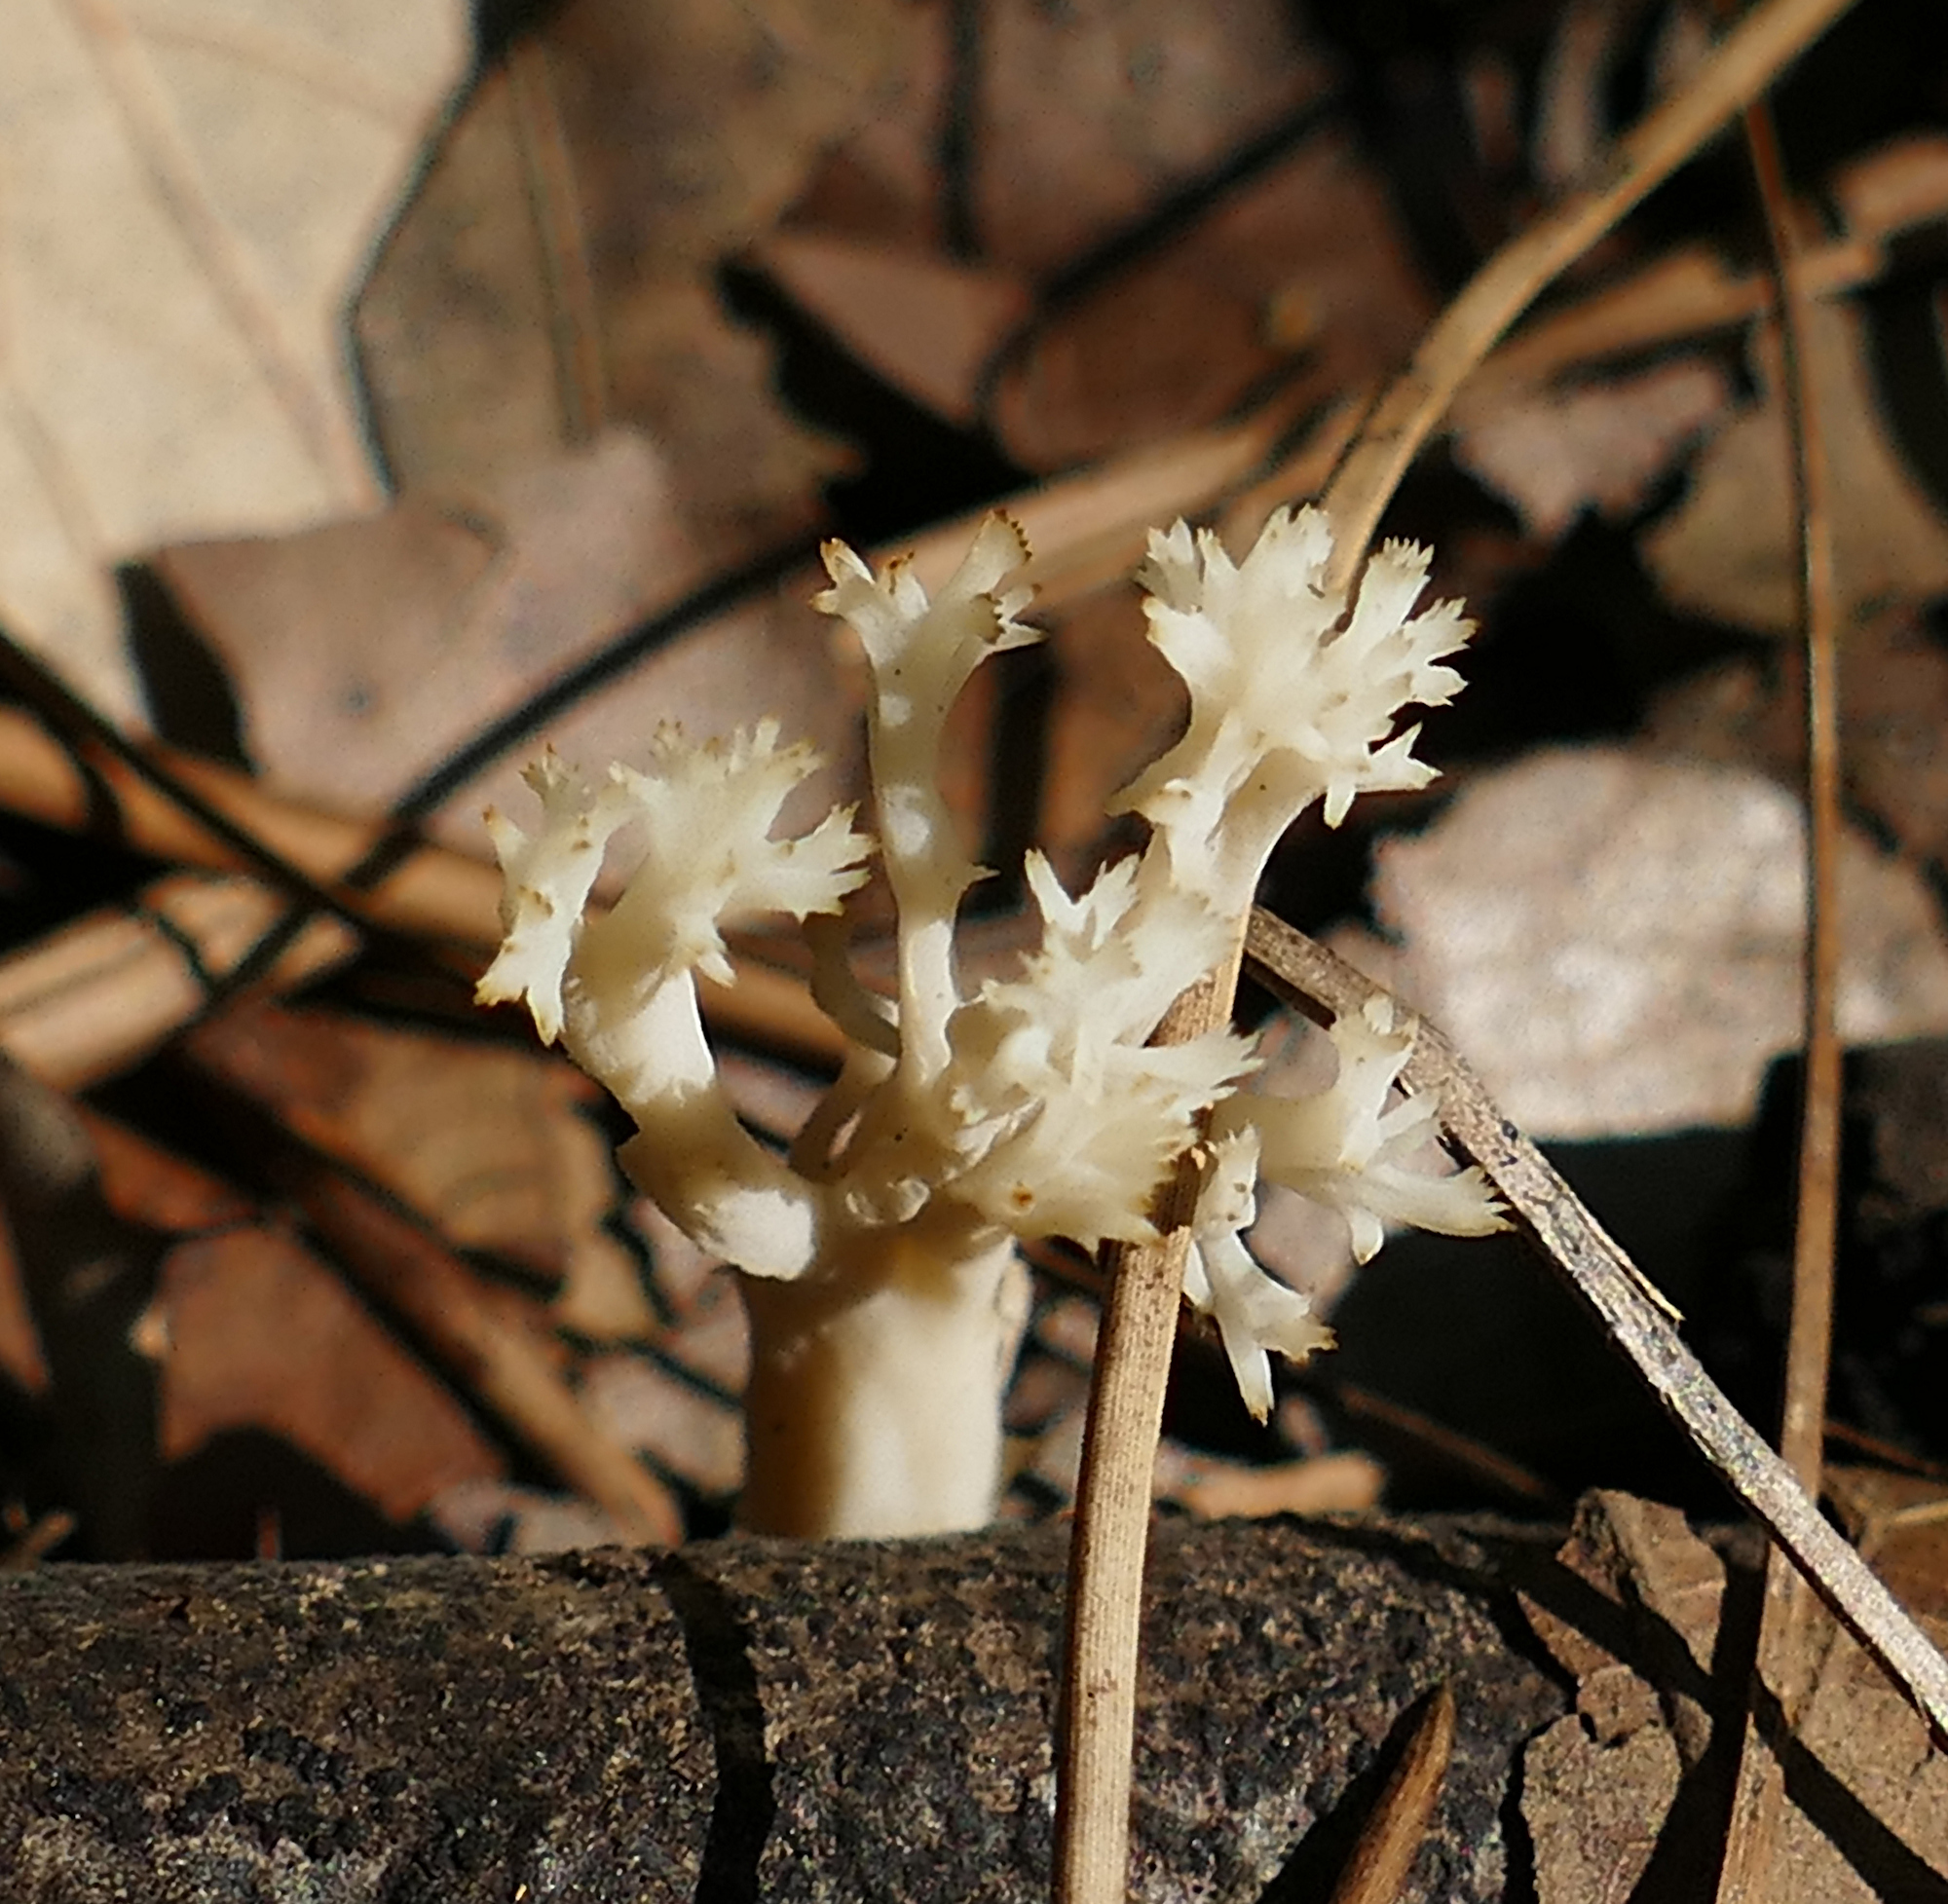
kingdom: Fungi
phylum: Basidiomycota
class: Agaricomycetes
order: Cantharellales
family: Hydnaceae
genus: Clavulina
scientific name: Clavulina coralloides
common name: Crested coral
